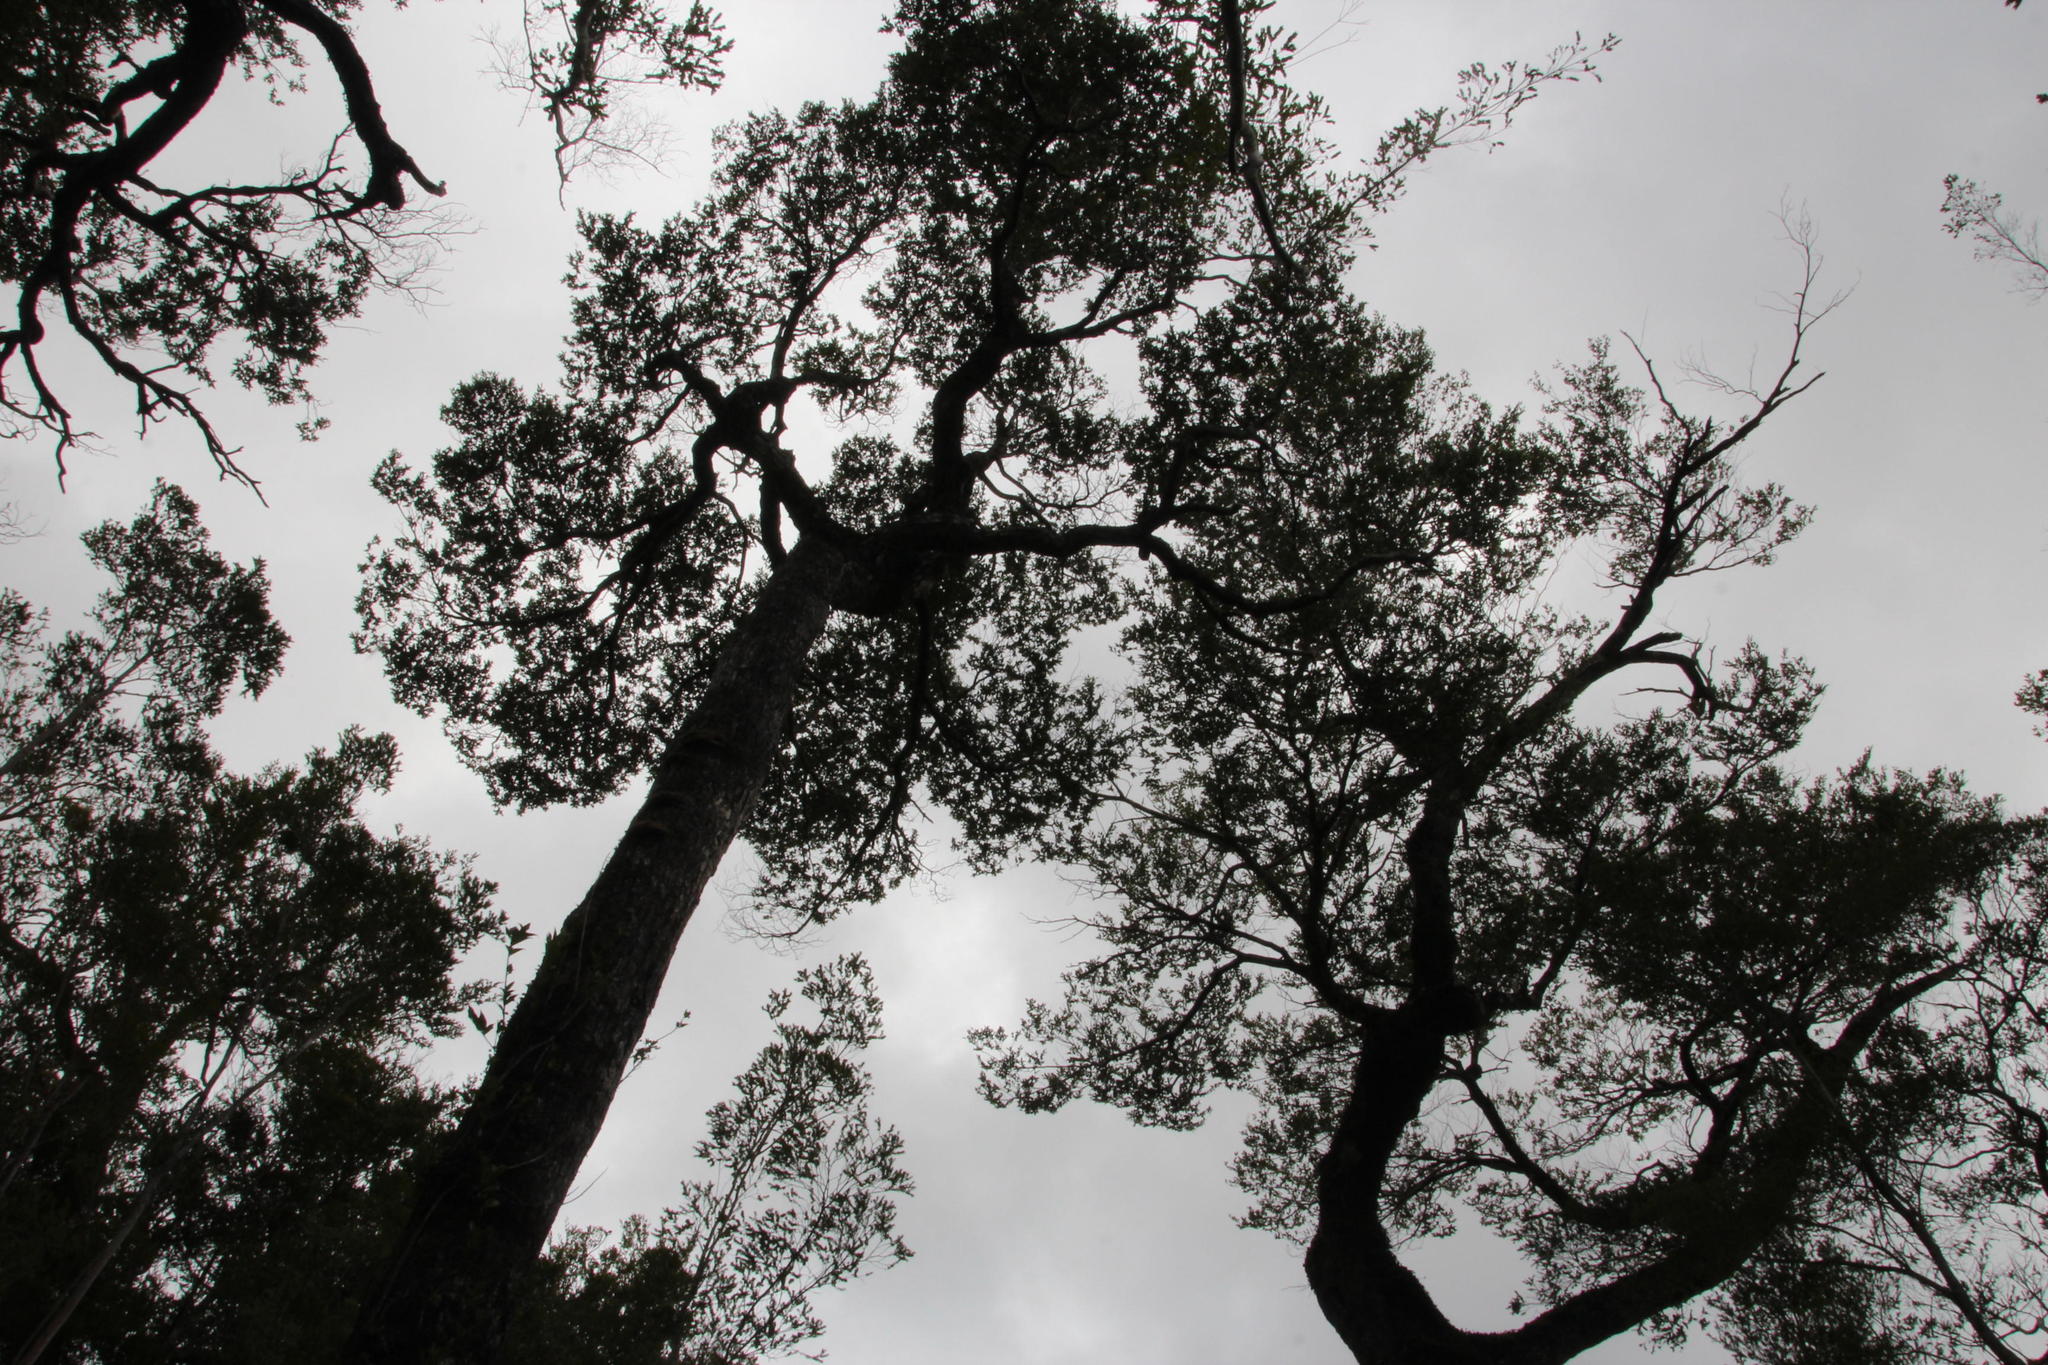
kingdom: Plantae
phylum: Tracheophyta
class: Magnoliopsida
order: Fagales
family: Nothofagaceae
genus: Nothofagus
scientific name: Nothofagus nitida
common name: Chiloé's coigue
